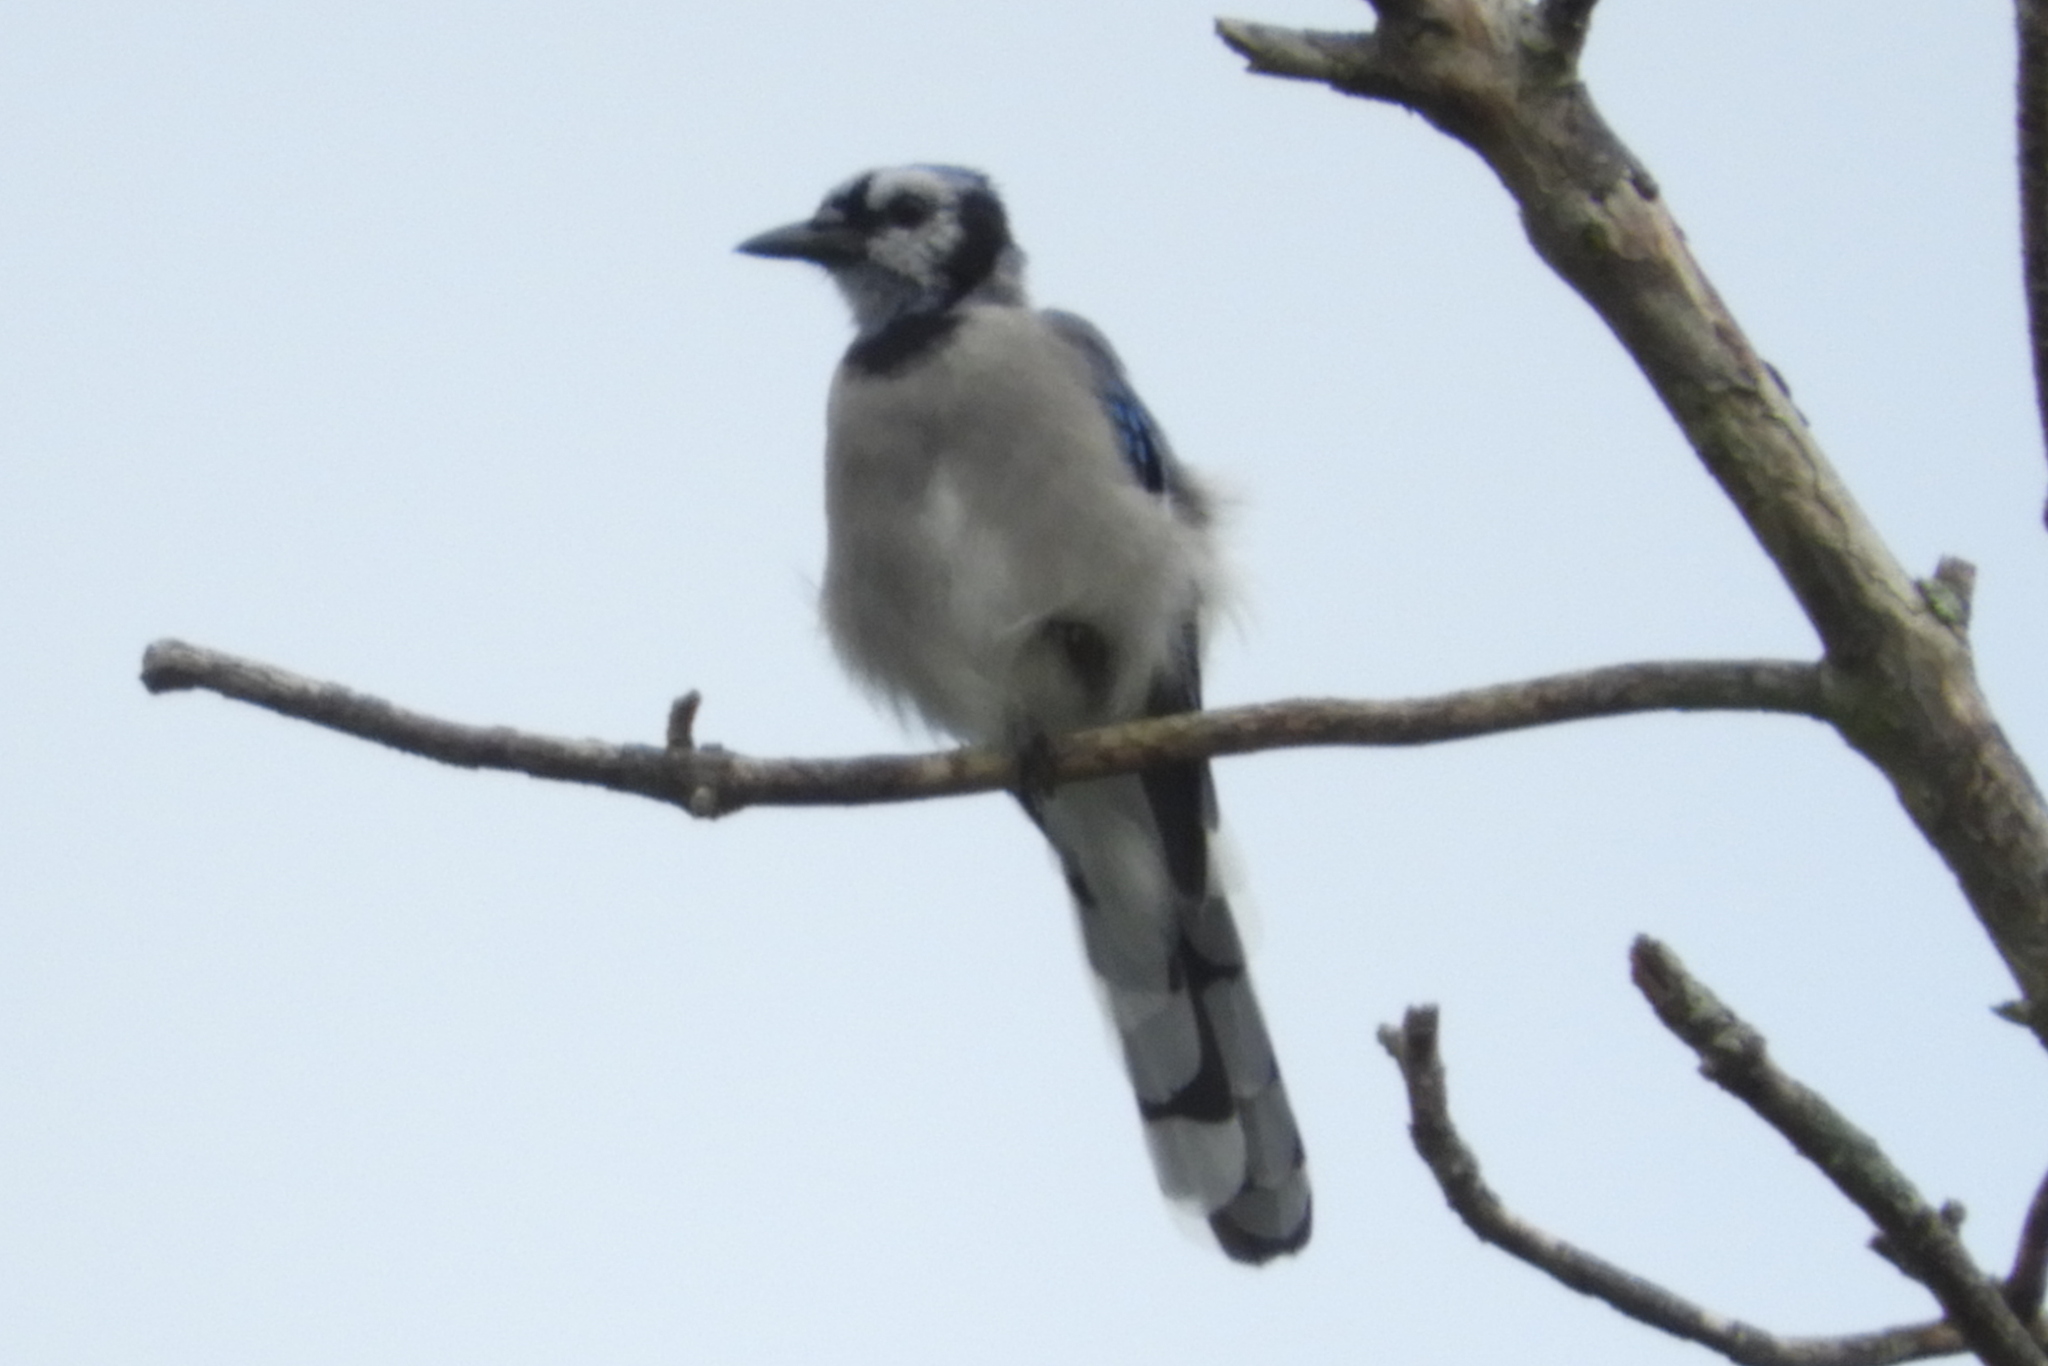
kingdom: Animalia
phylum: Chordata
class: Aves
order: Passeriformes
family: Corvidae
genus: Cyanocitta
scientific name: Cyanocitta cristata
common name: Blue jay
